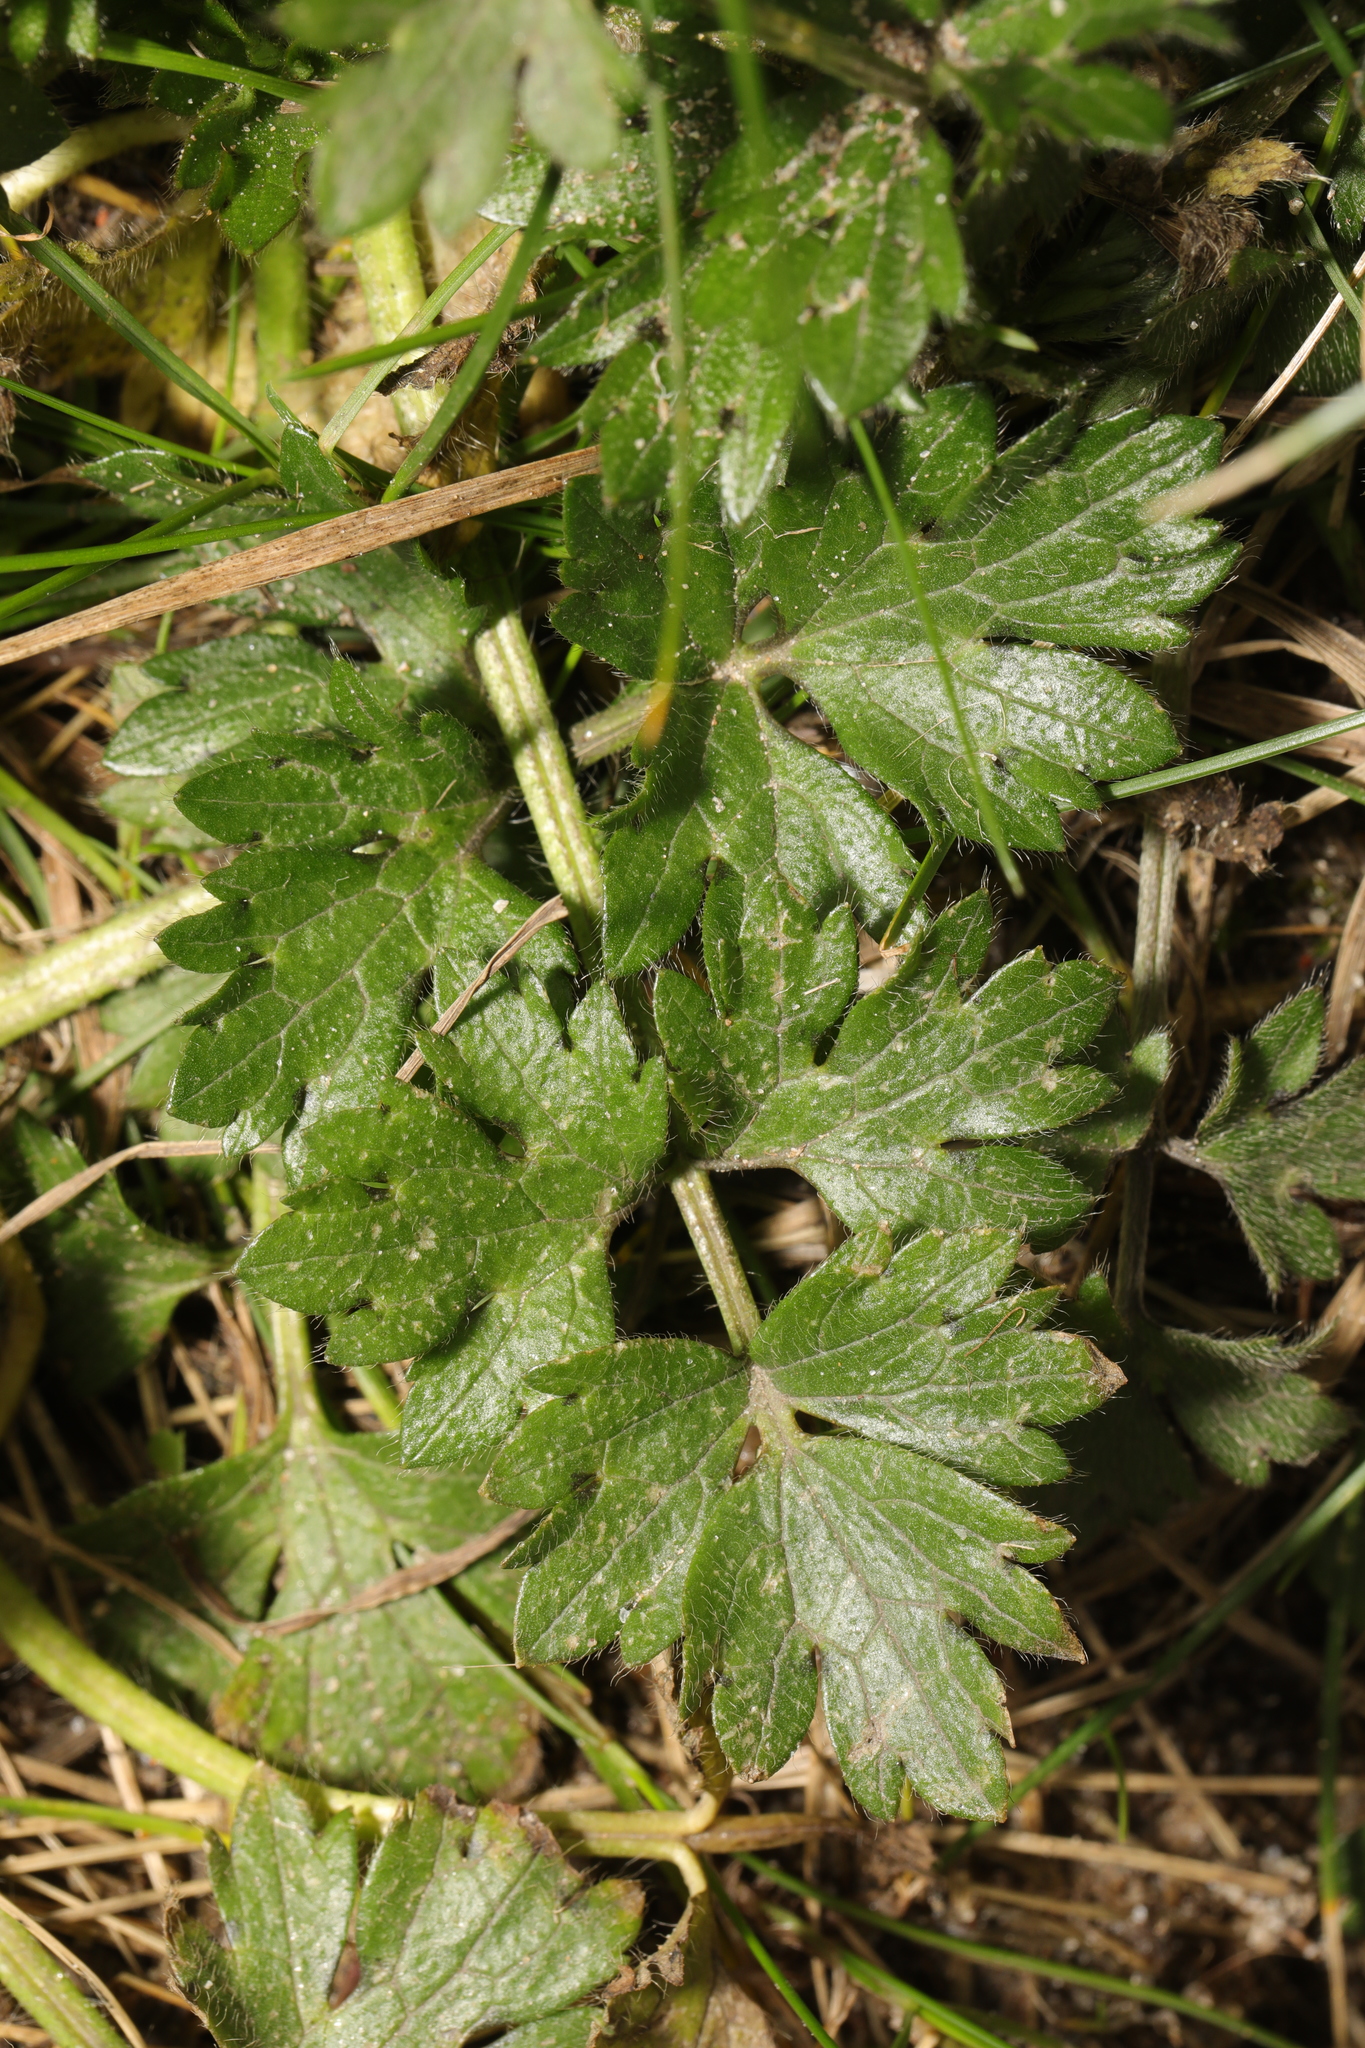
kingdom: Plantae
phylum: Tracheophyta
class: Magnoliopsida
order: Ranunculales
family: Ranunculaceae
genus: Ranunculus
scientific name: Ranunculus repens
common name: Creeping buttercup
